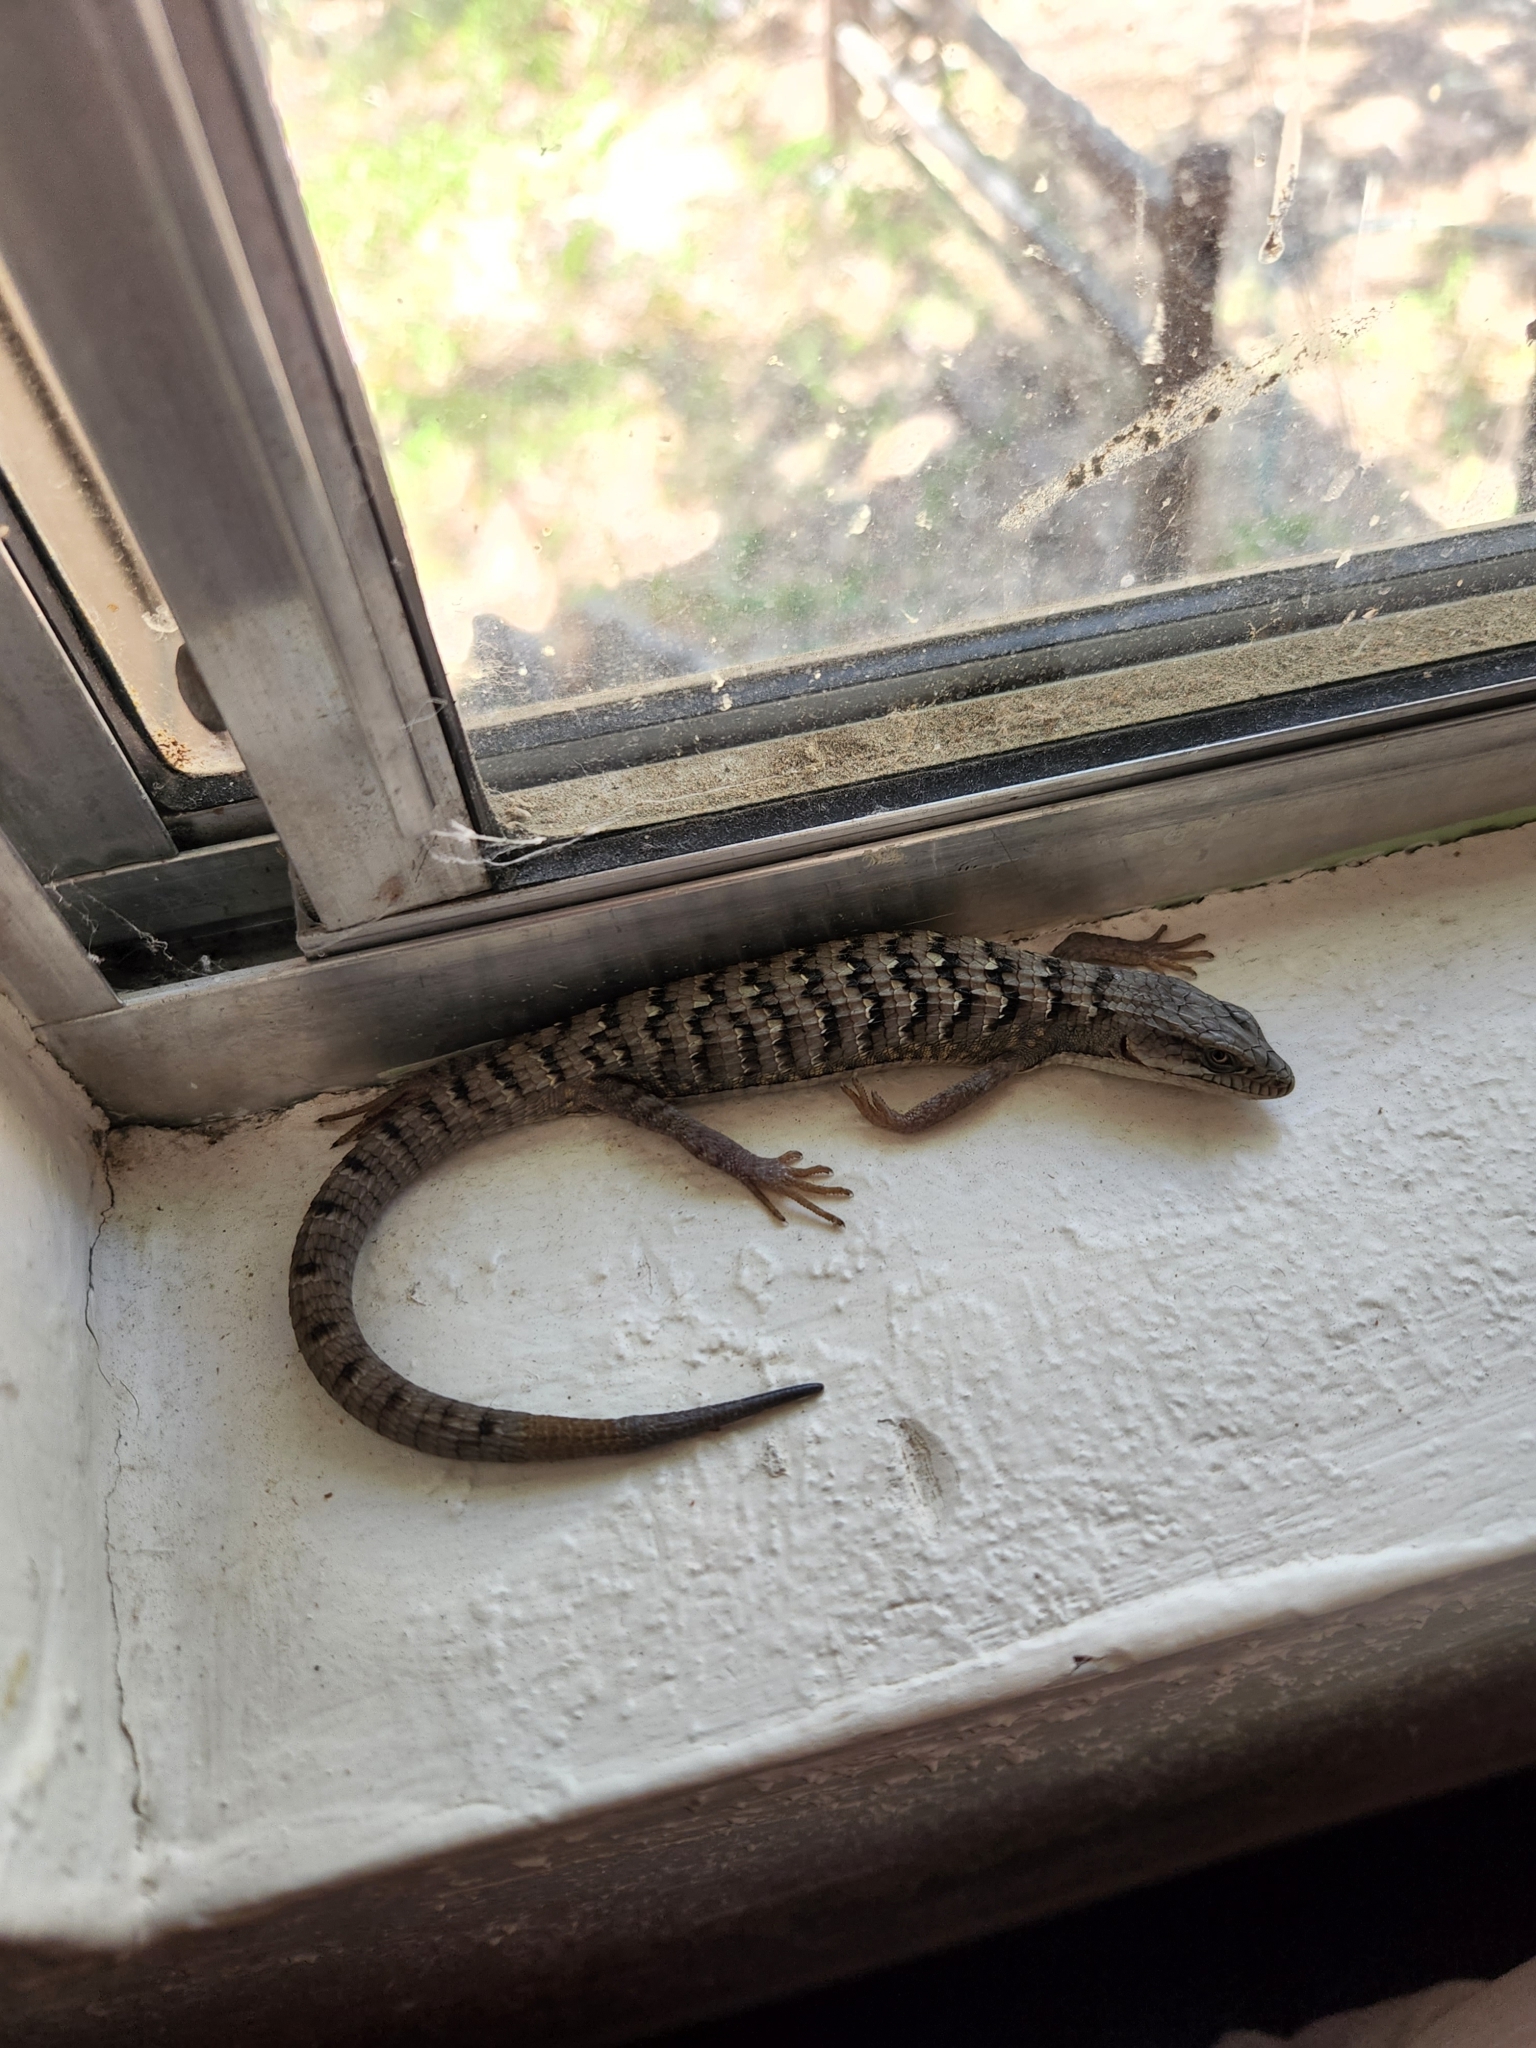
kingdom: Animalia
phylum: Chordata
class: Squamata
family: Anguidae
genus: Elgaria
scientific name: Elgaria multicarinata
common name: Southern alligator lizard
